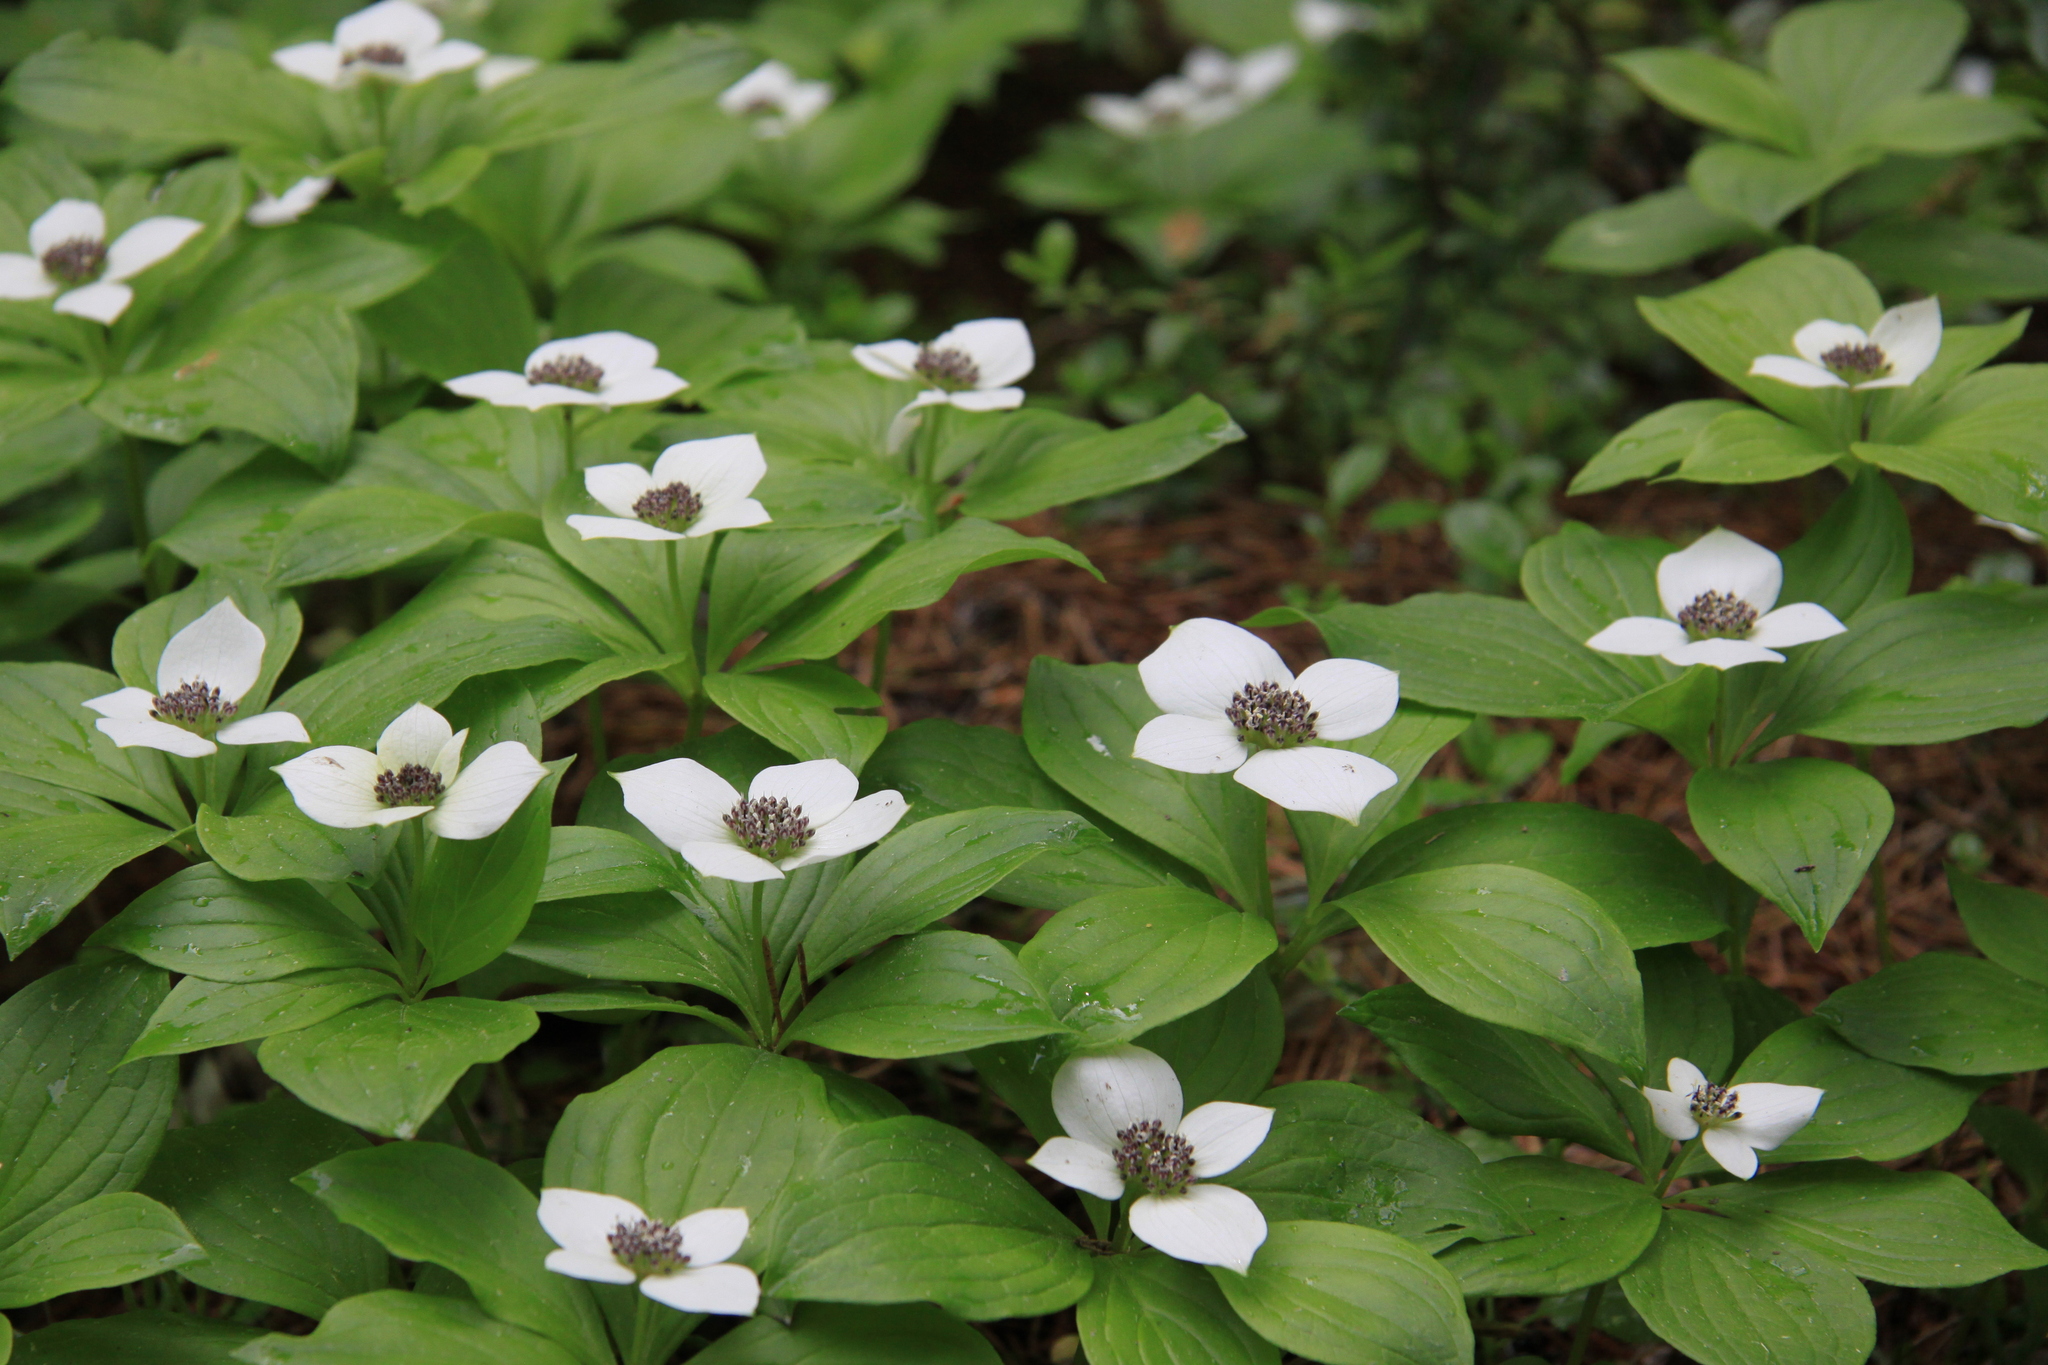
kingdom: Plantae
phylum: Tracheophyta
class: Magnoliopsida
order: Cornales
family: Cornaceae
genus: Cornus
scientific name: Cornus unalaschkensis
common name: Alaska bunchberry
